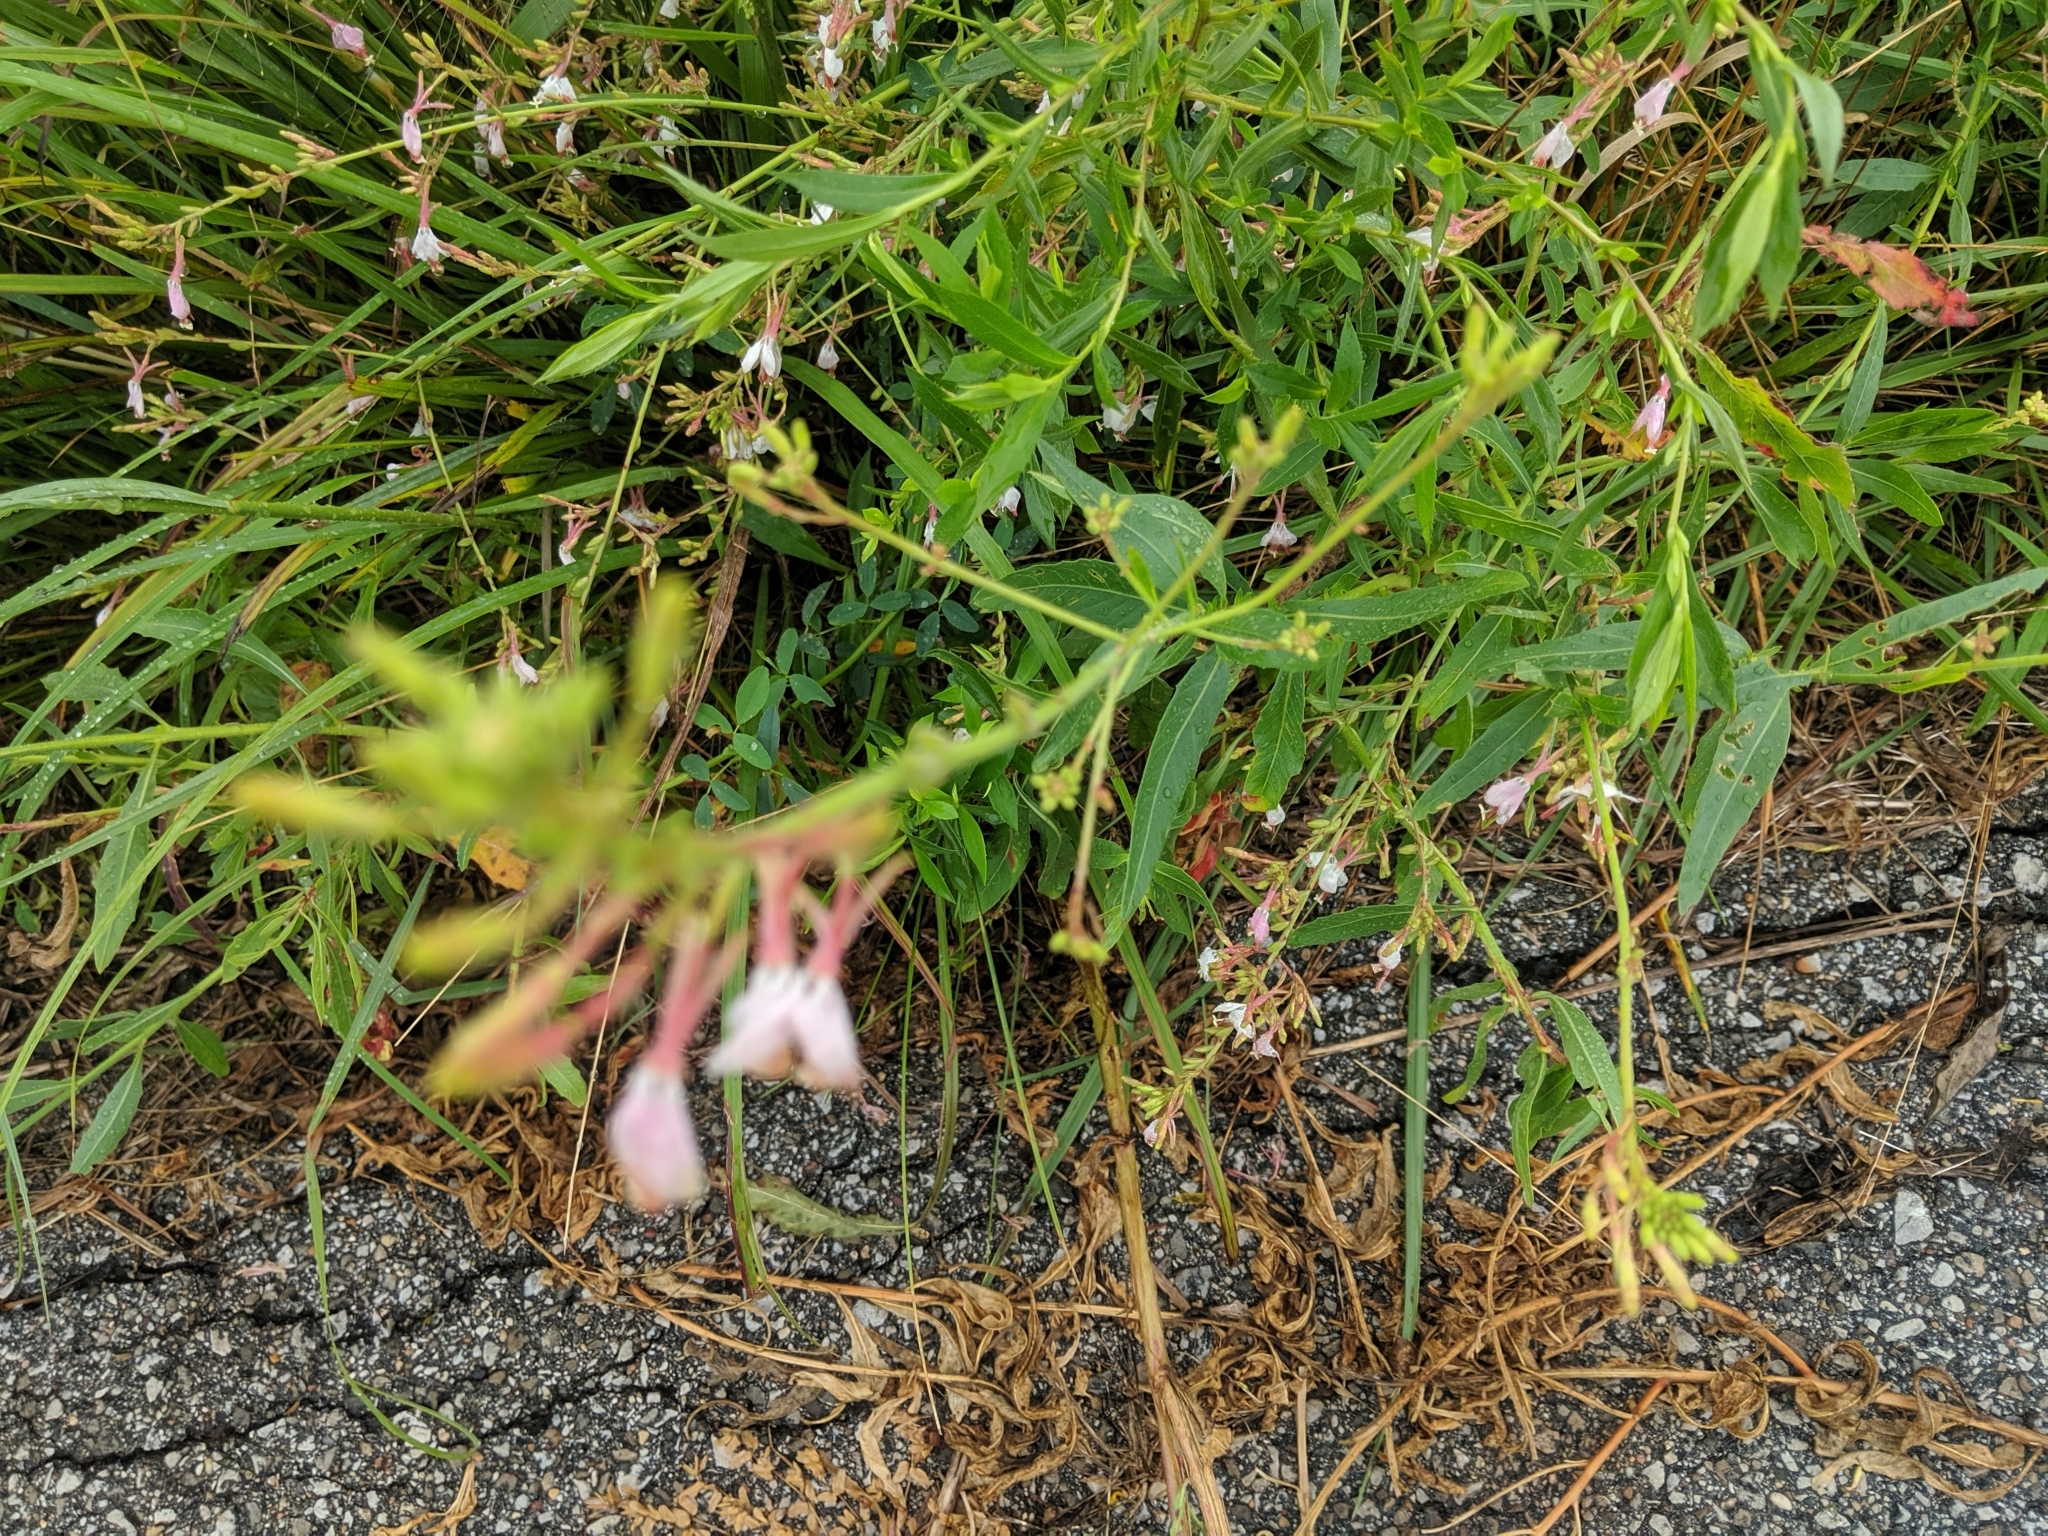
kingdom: Plantae
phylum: Tracheophyta
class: Magnoliopsida
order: Myrtales
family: Onagraceae
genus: Oenothera
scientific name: Oenothera gaura
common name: Biennial beeblossom
